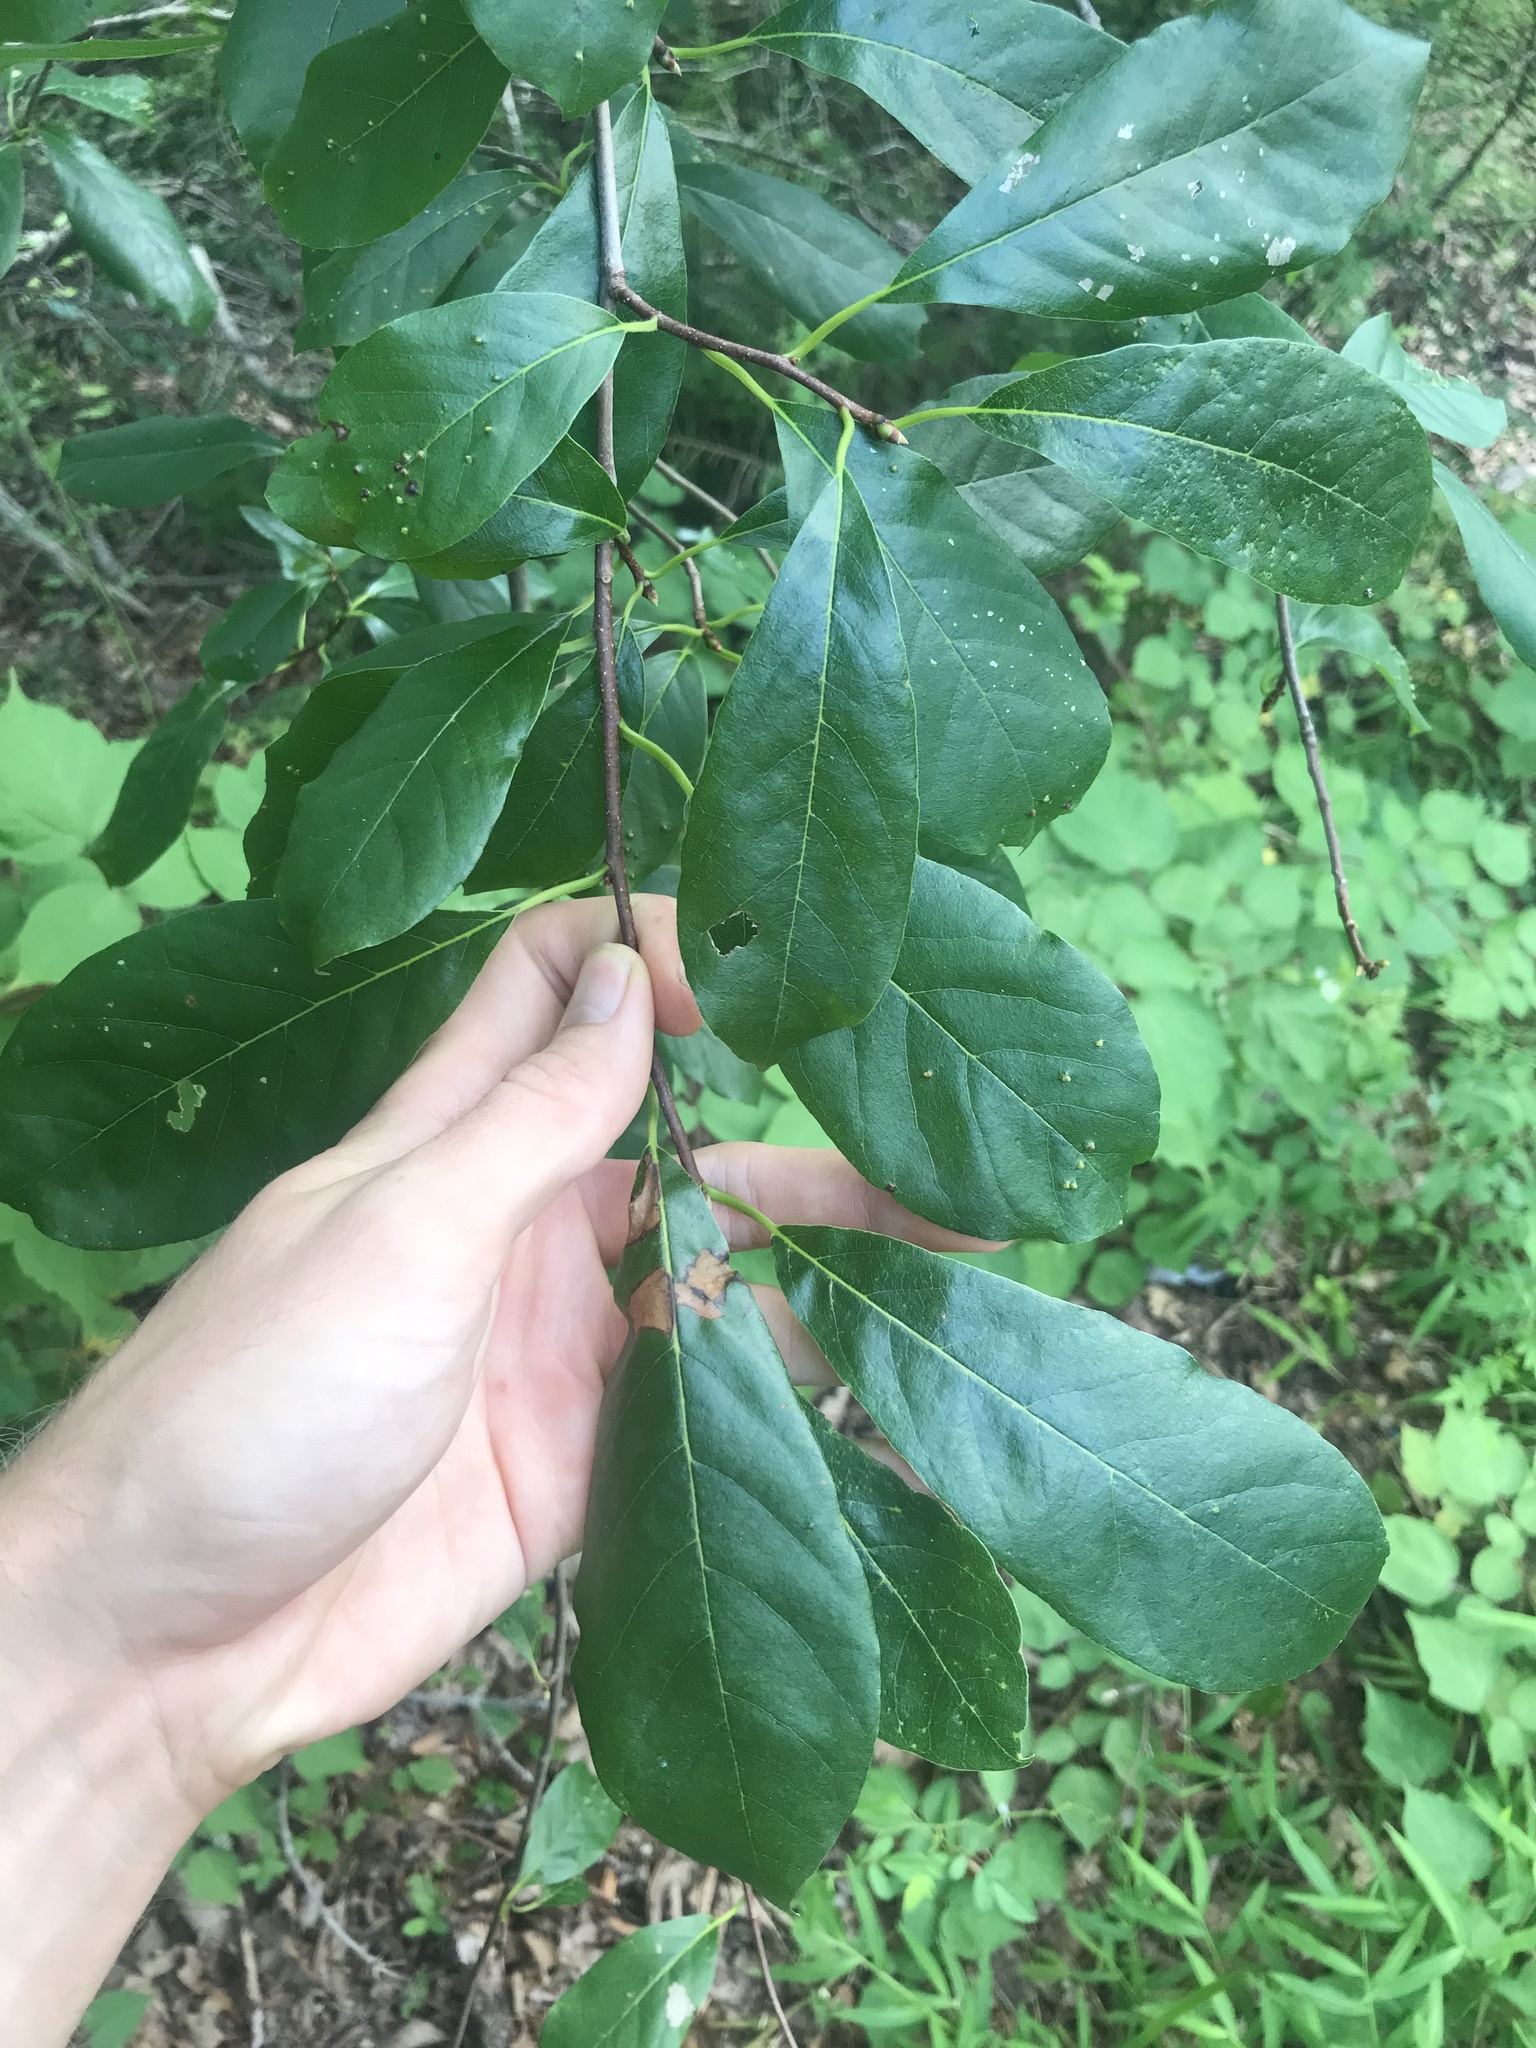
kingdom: Plantae
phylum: Tracheophyta
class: Magnoliopsida
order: Cornales
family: Nyssaceae
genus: Nyssa
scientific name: Nyssa sylvatica
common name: Black tupelo
